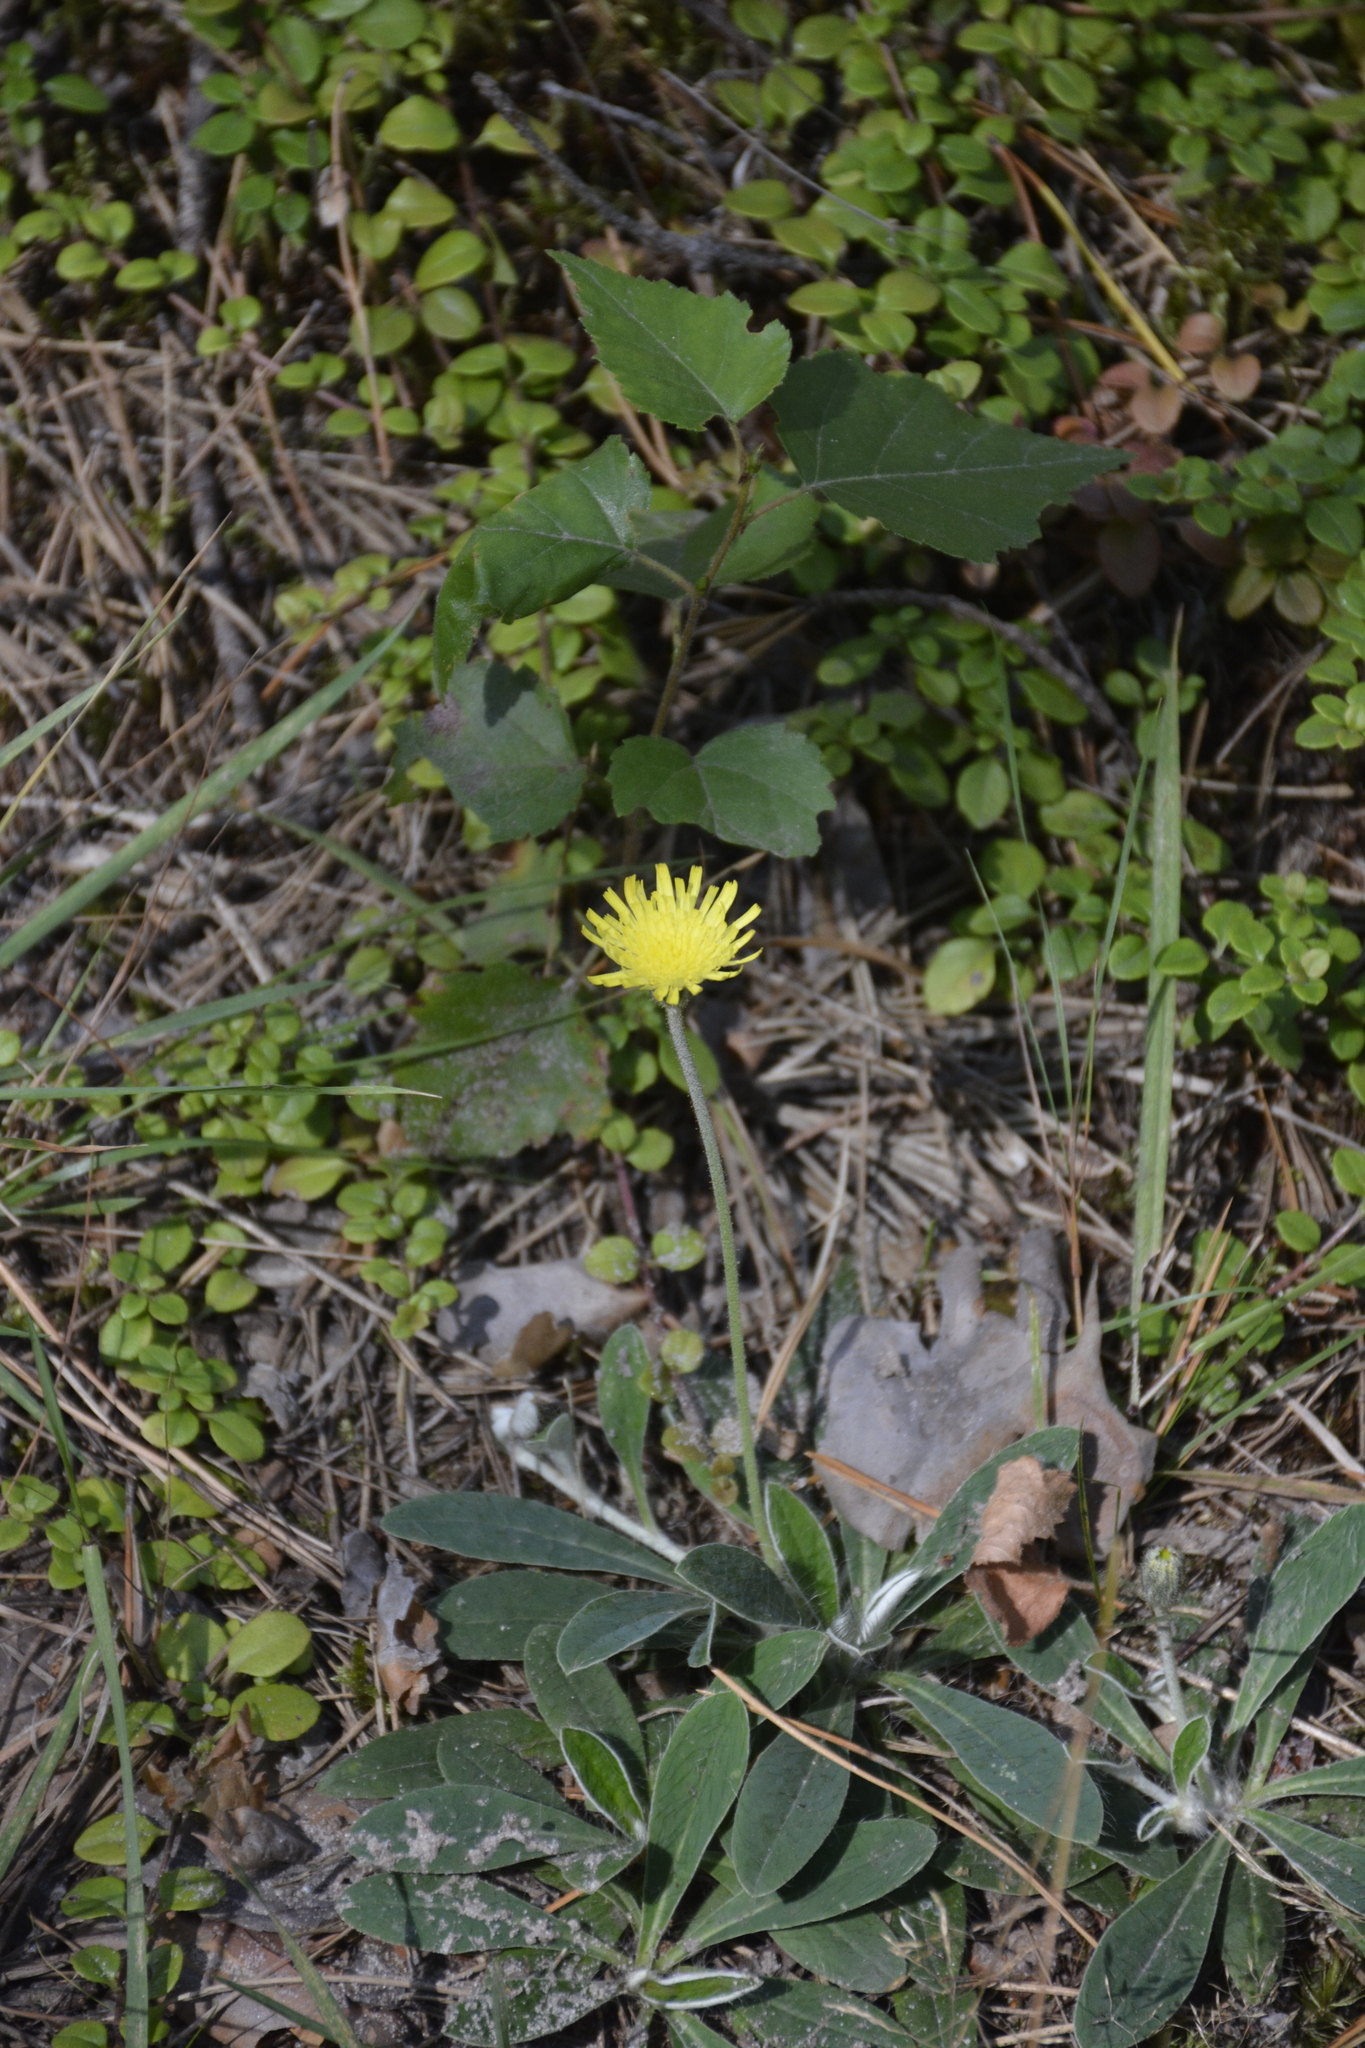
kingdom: Plantae
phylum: Tracheophyta
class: Magnoliopsida
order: Asterales
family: Asteraceae
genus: Pilosella
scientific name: Pilosella officinarum
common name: Mouse-ear hawkweed
